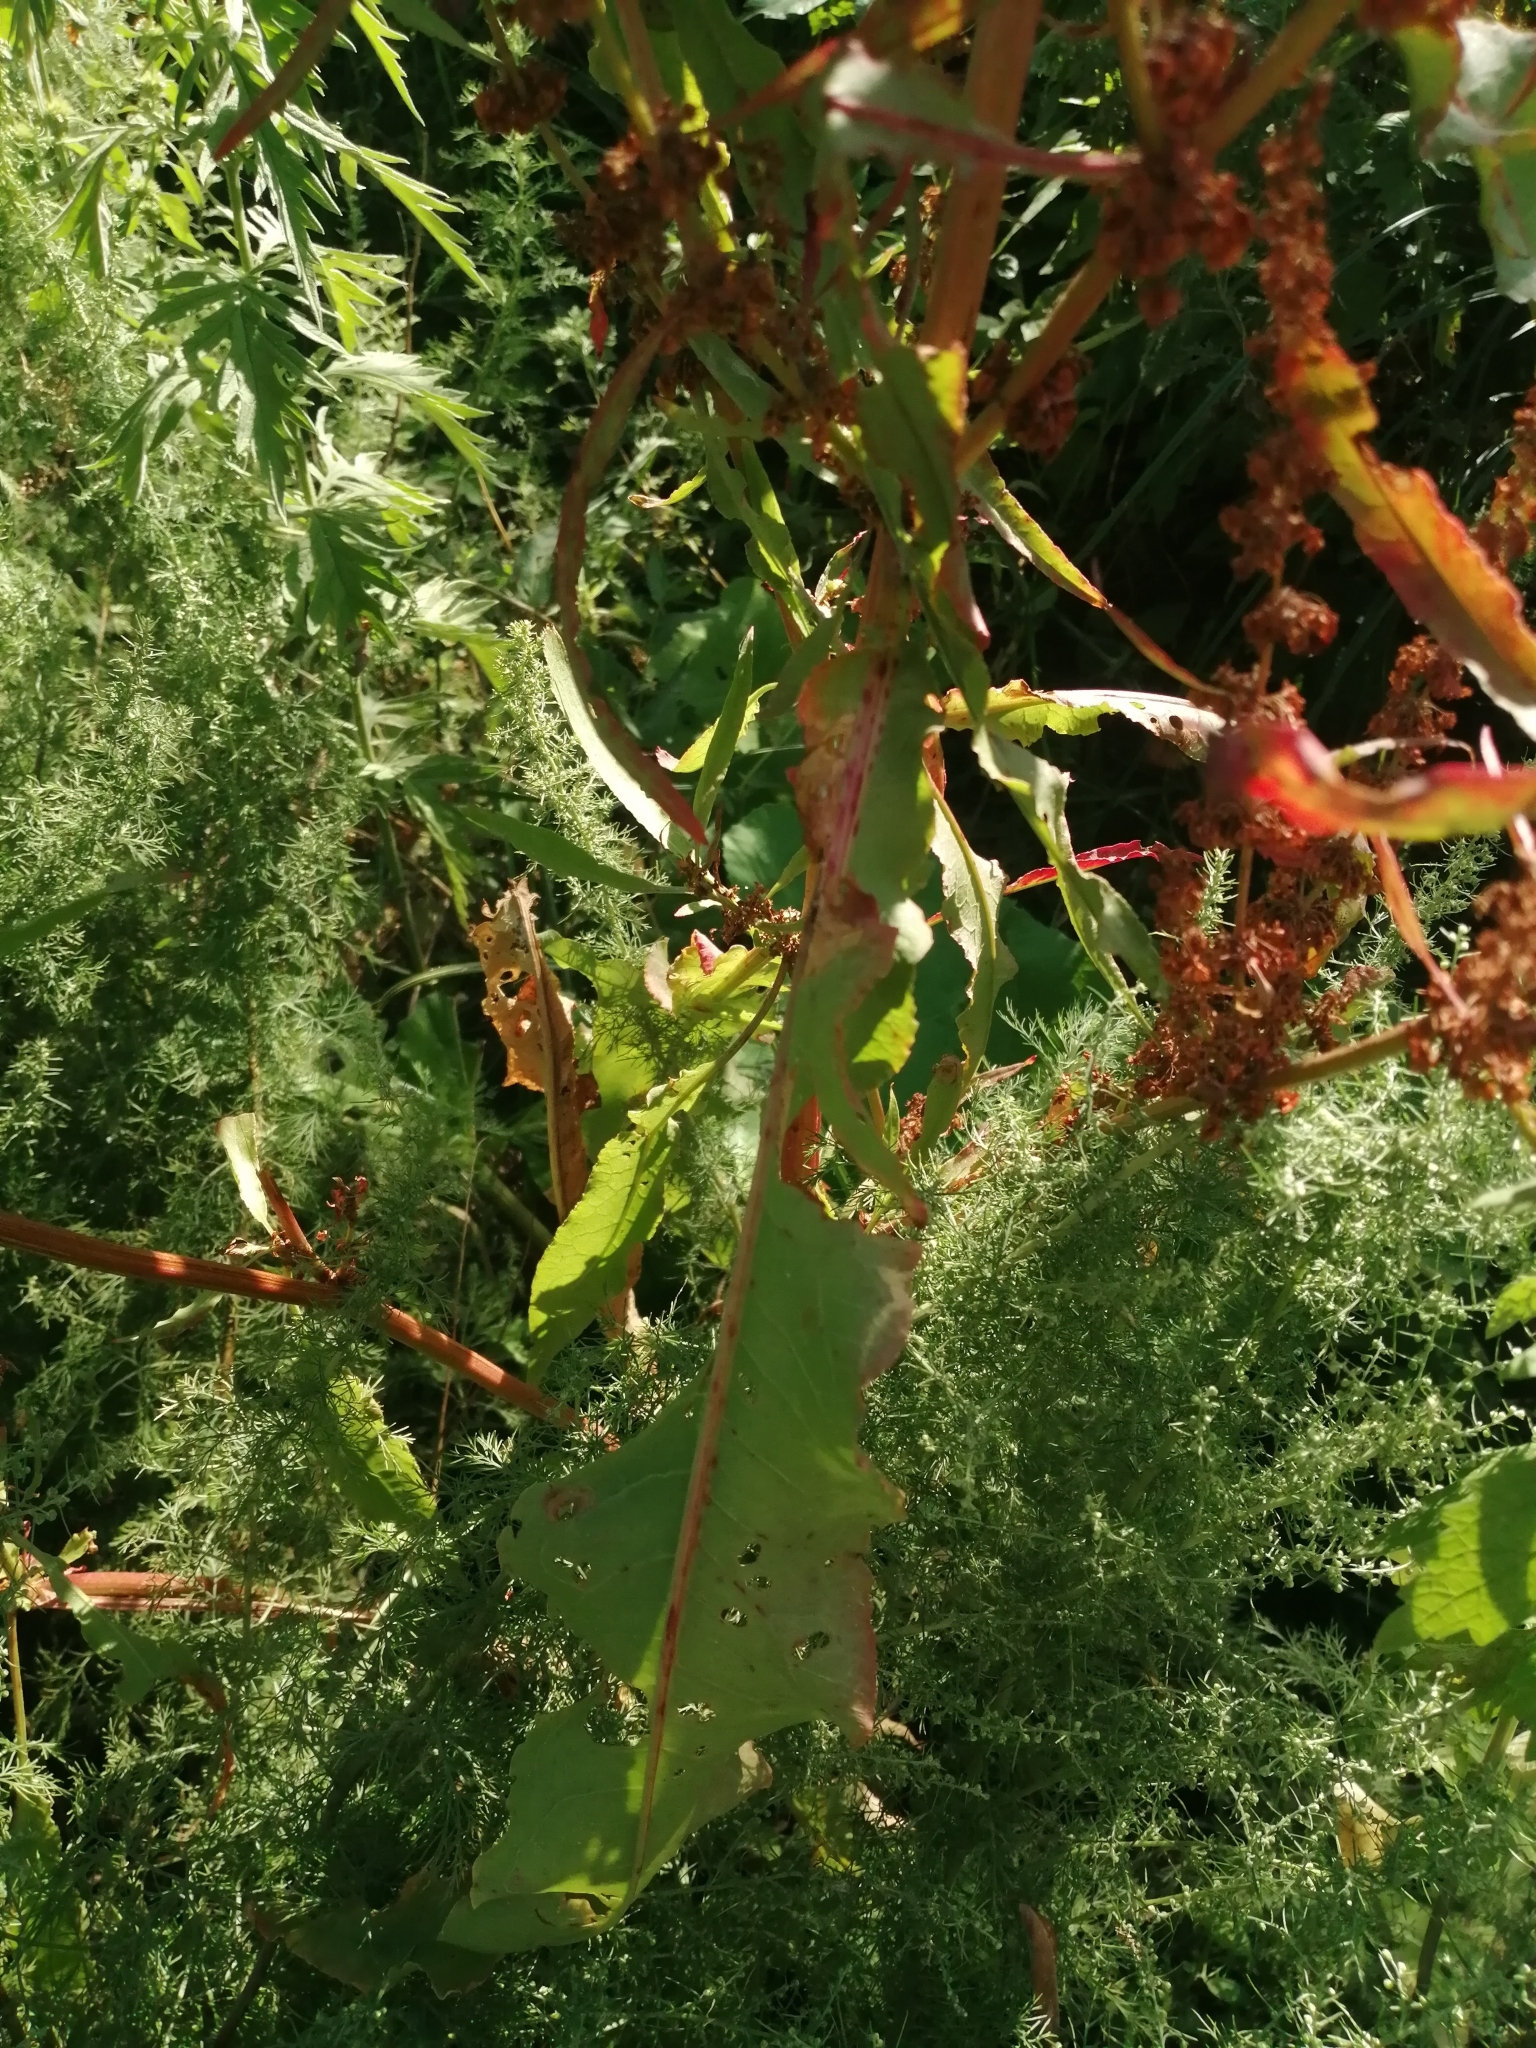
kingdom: Plantae
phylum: Tracheophyta
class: Magnoliopsida
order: Caryophyllales
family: Polygonaceae
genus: Rumex
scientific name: Rumex stenophyllus
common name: Narrowleaf dock
